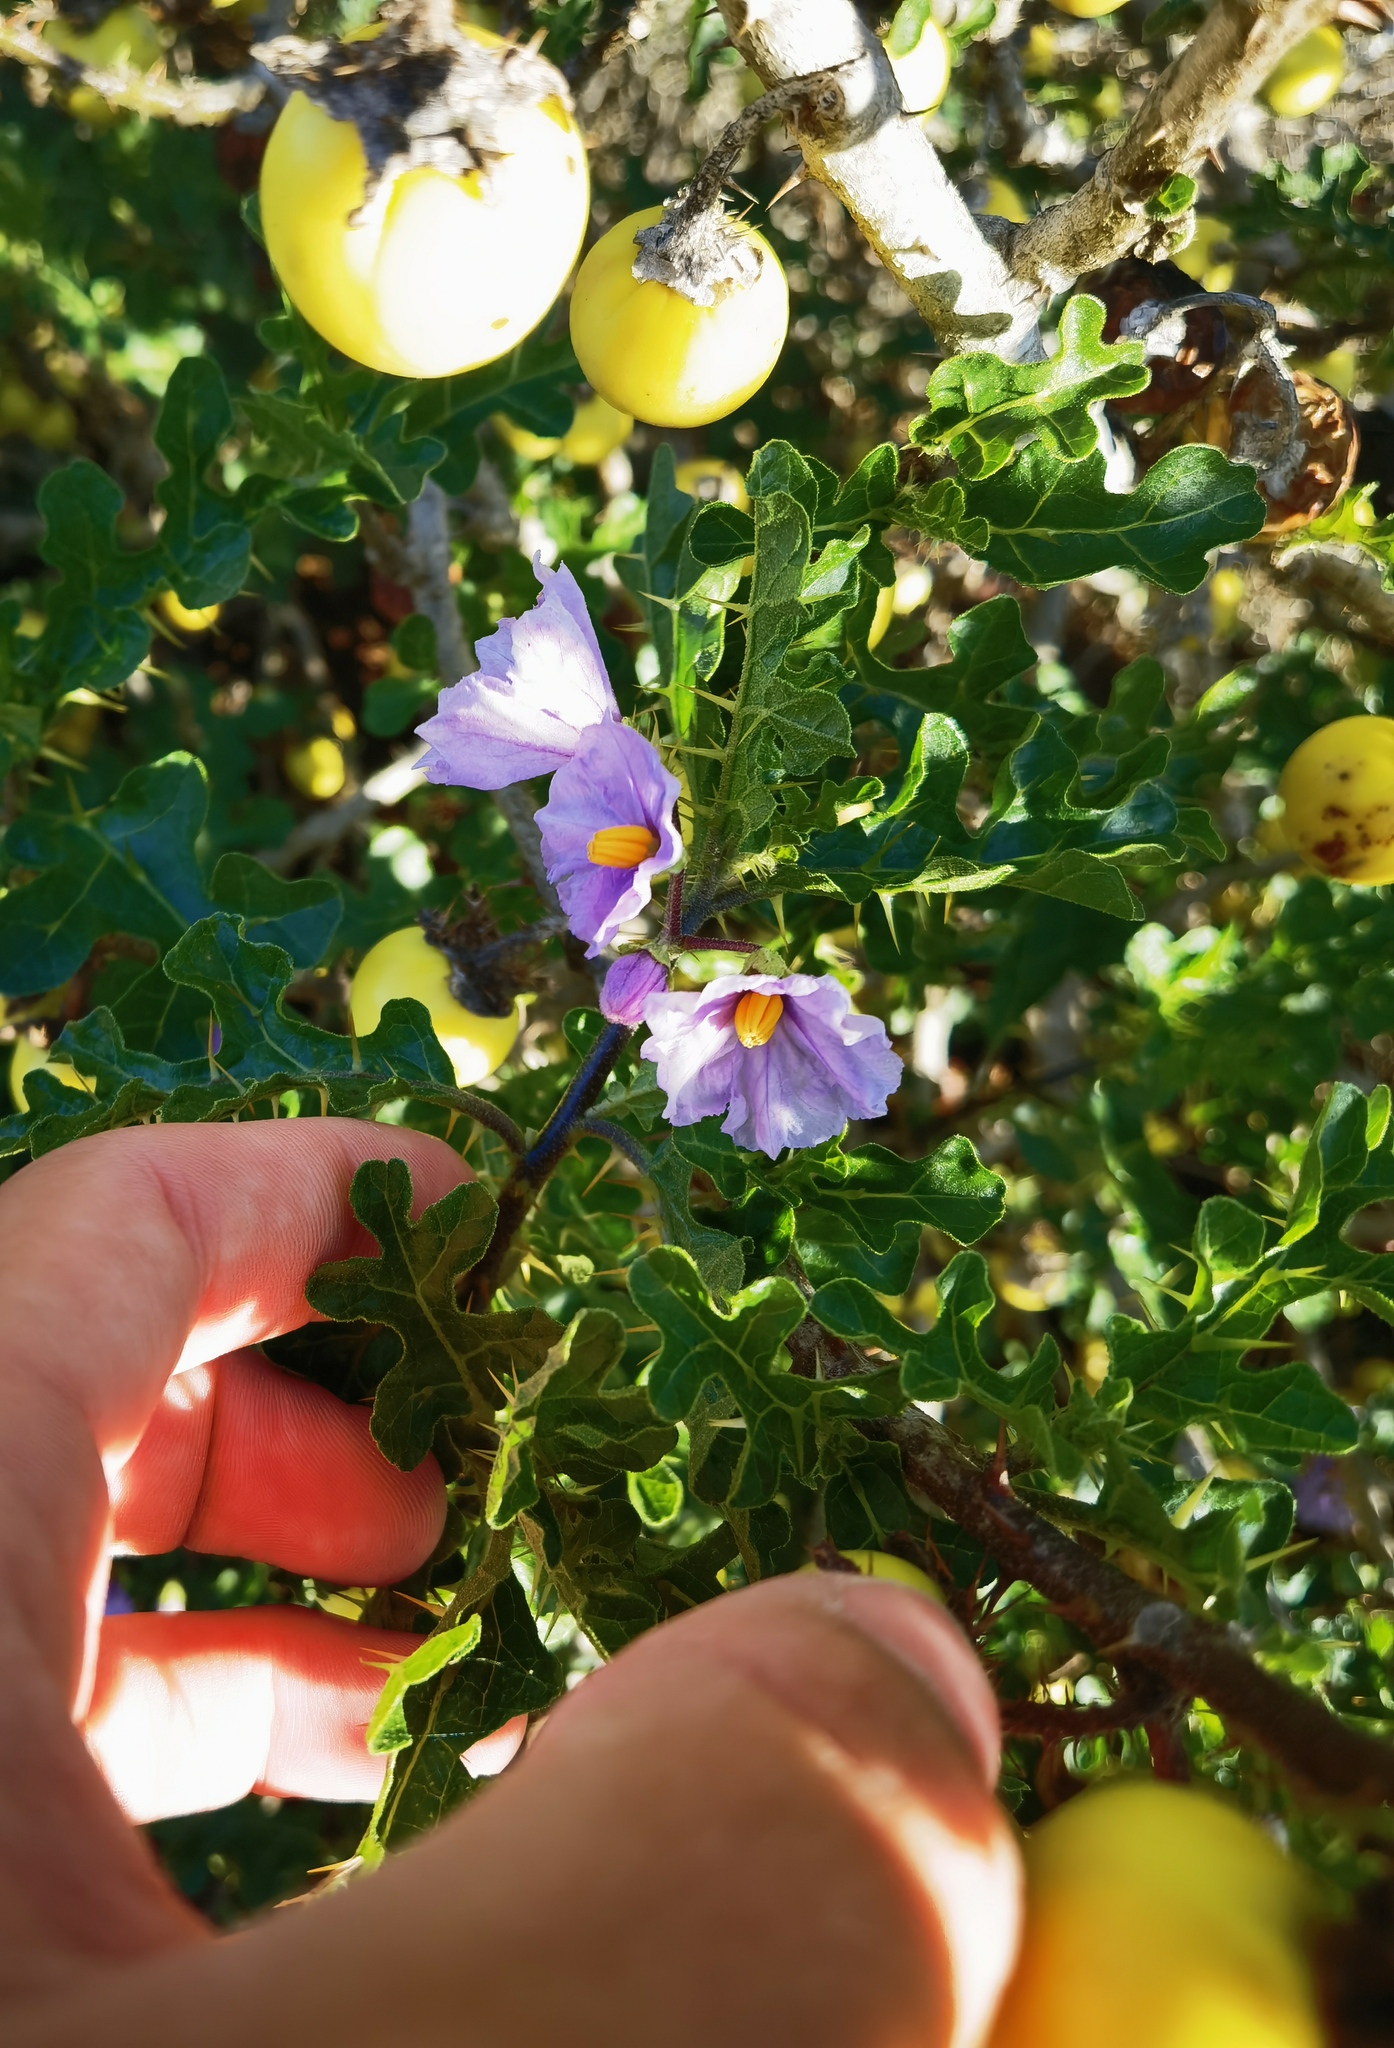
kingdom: Plantae
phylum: Tracheophyta
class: Magnoliopsida
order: Solanales
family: Solanaceae
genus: Solanum
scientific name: Solanum linnaeanum
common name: Nightshade
